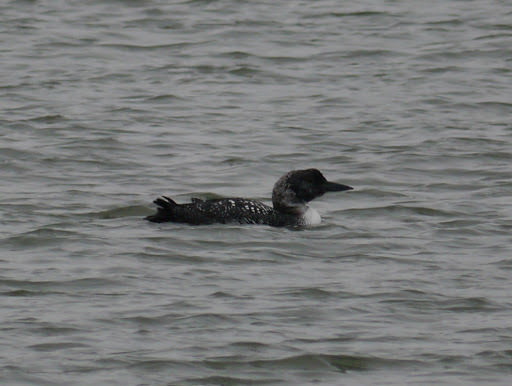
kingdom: Animalia
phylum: Chordata
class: Aves
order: Gaviiformes
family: Gaviidae
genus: Gavia
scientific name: Gavia immer
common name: Common loon
